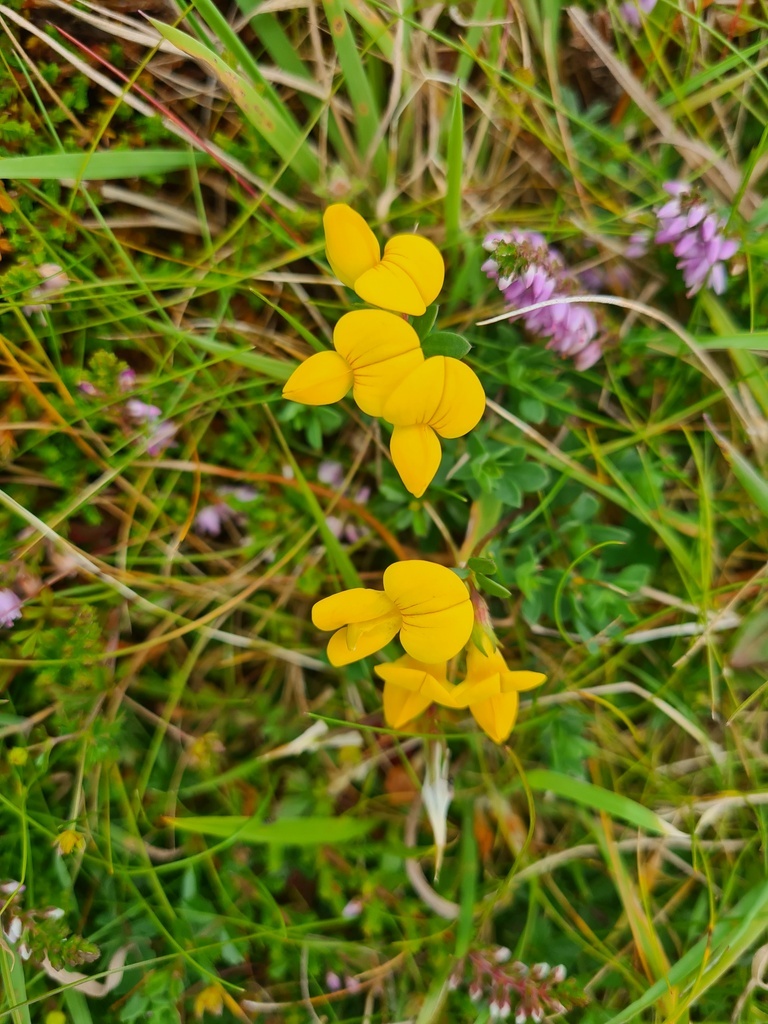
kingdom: Plantae
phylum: Tracheophyta
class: Magnoliopsida
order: Fabales
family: Fabaceae
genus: Lotus
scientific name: Lotus corniculatus
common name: Common bird's-foot-trefoil
